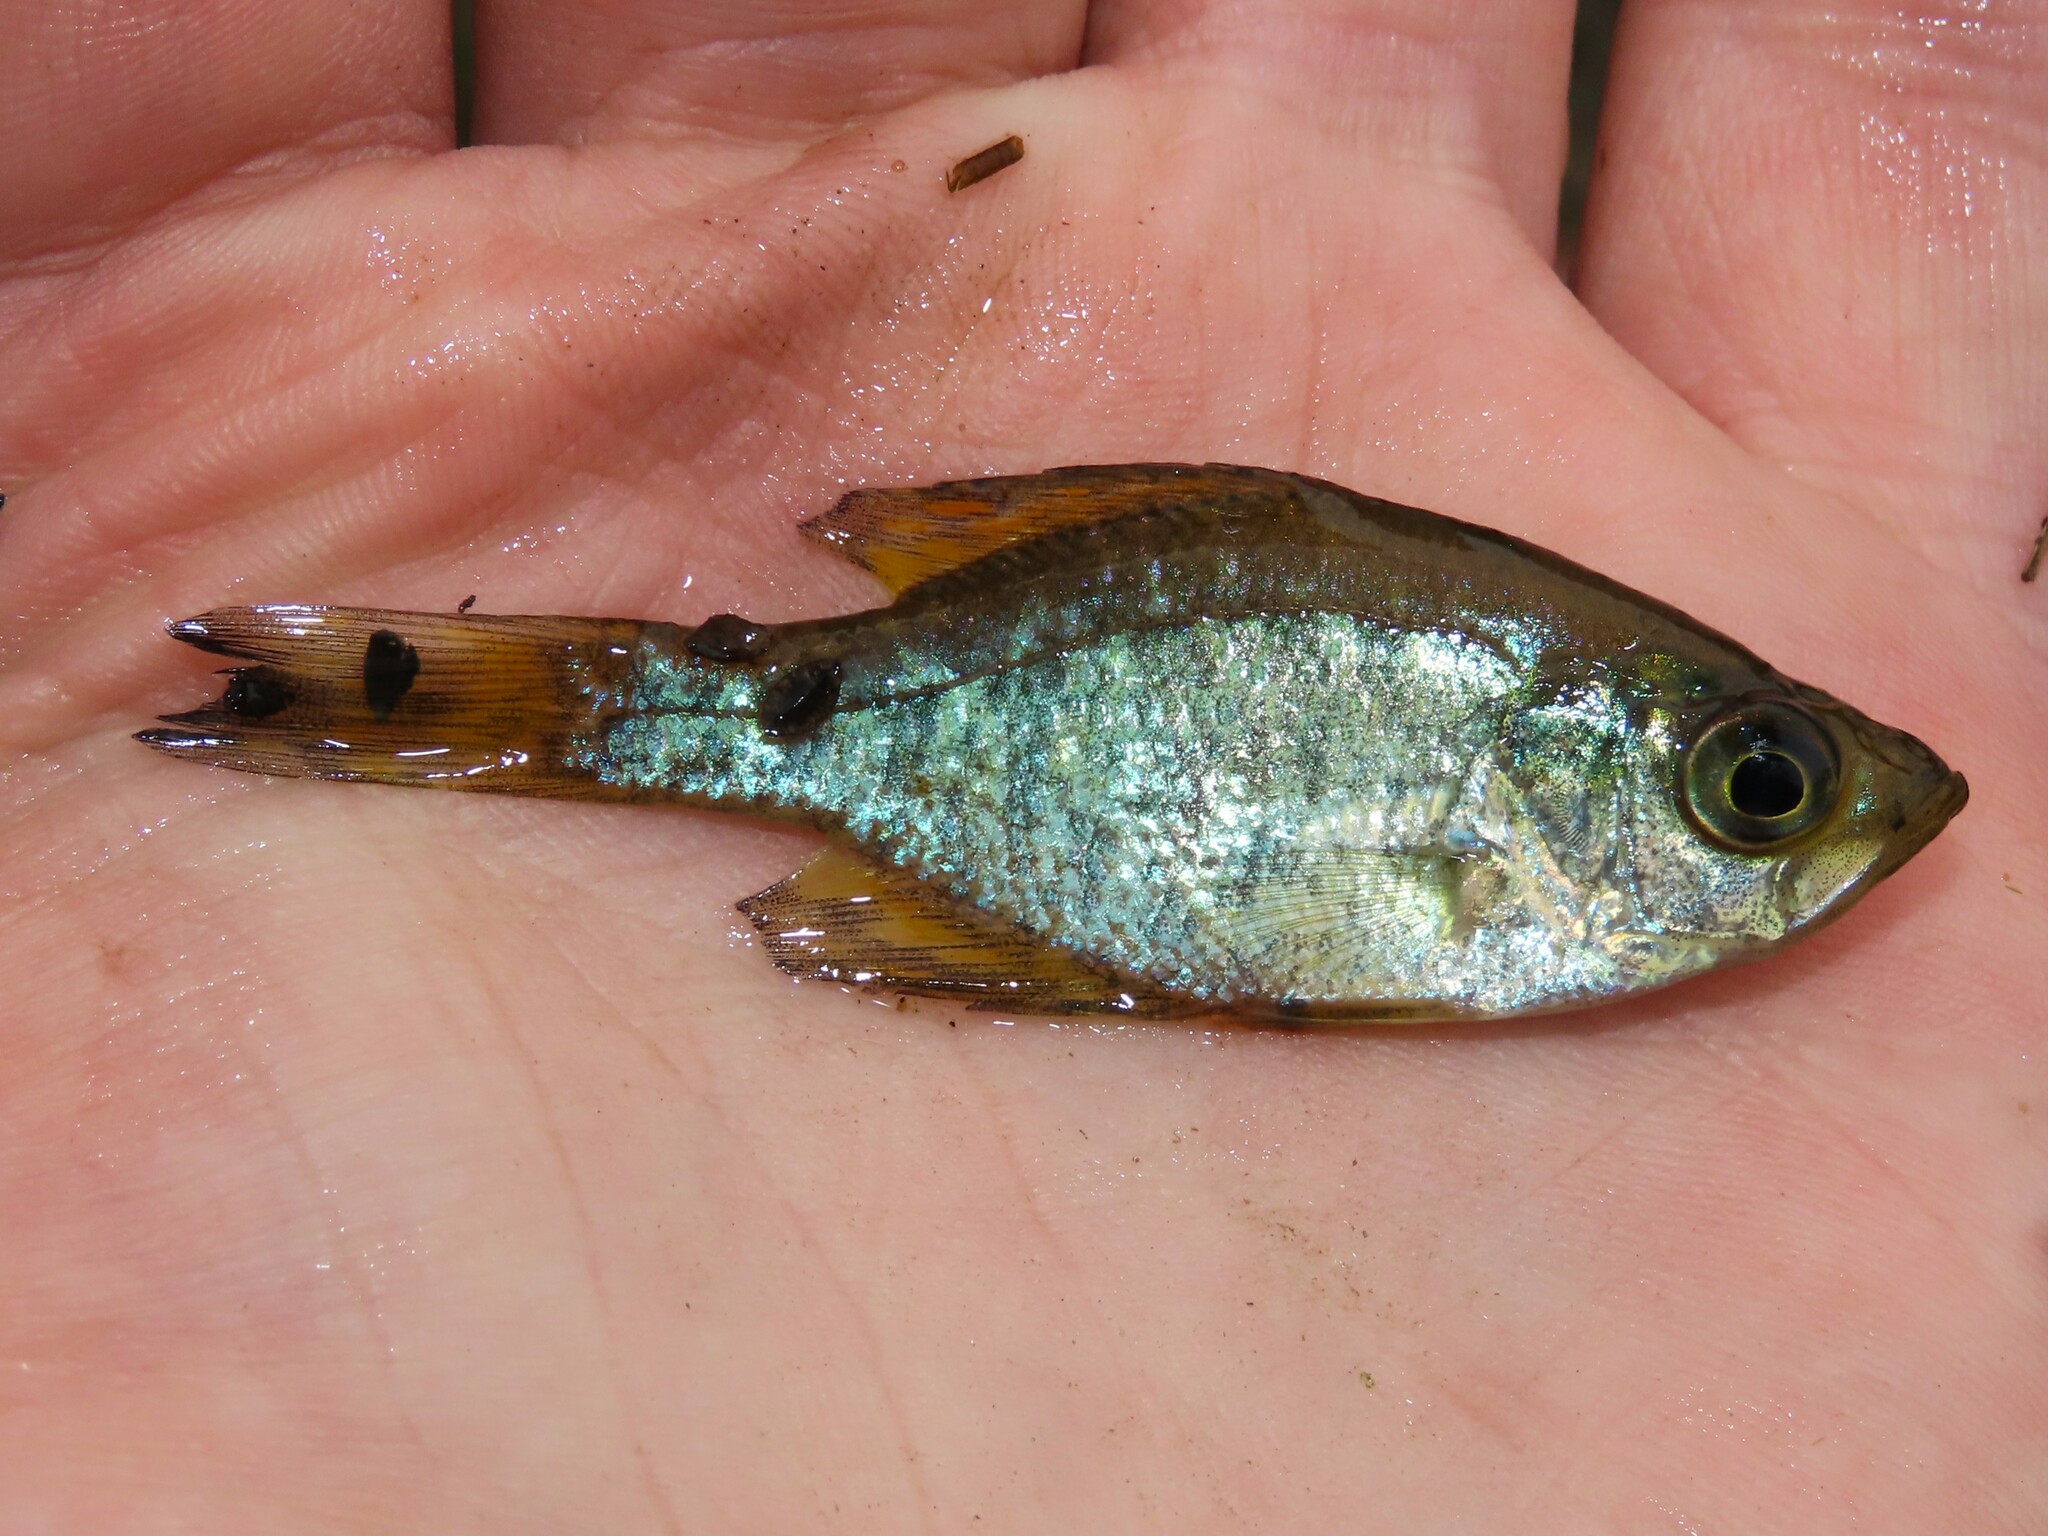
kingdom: Animalia
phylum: Chordata
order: Perciformes
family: Centrarchidae
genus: Pomoxis
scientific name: Pomoxis nigromaculatus
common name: Black crappie
